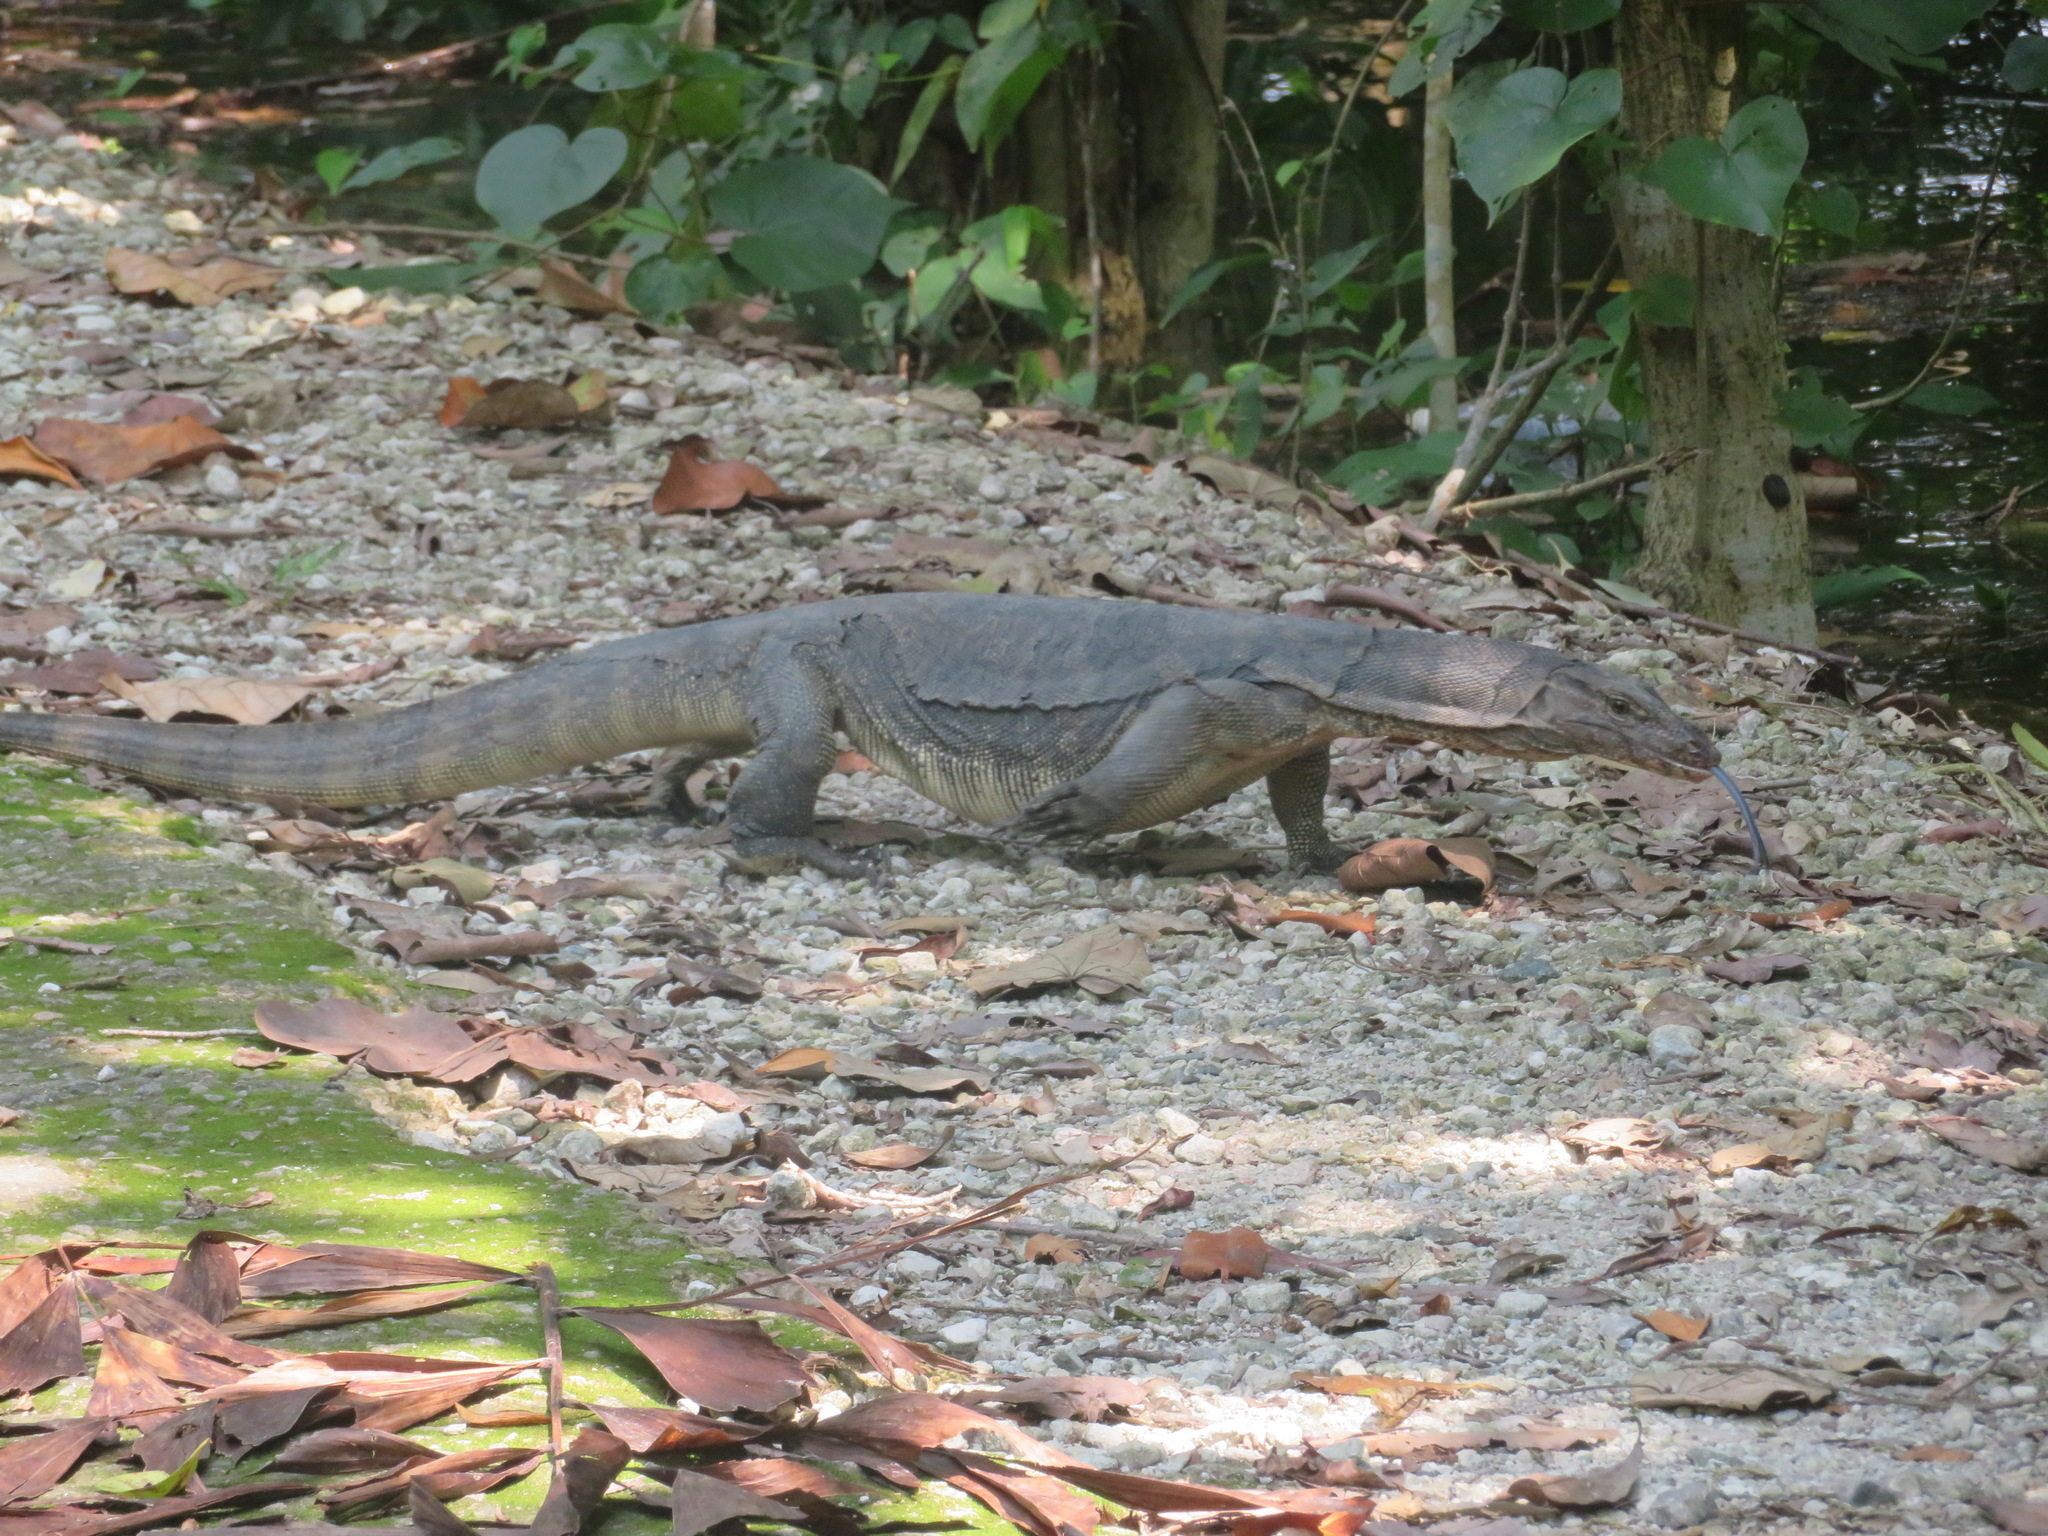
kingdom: Animalia
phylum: Chordata
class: Squamata
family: Varanidae
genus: Varanus
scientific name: Varanus salvator
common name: Common water monitor
